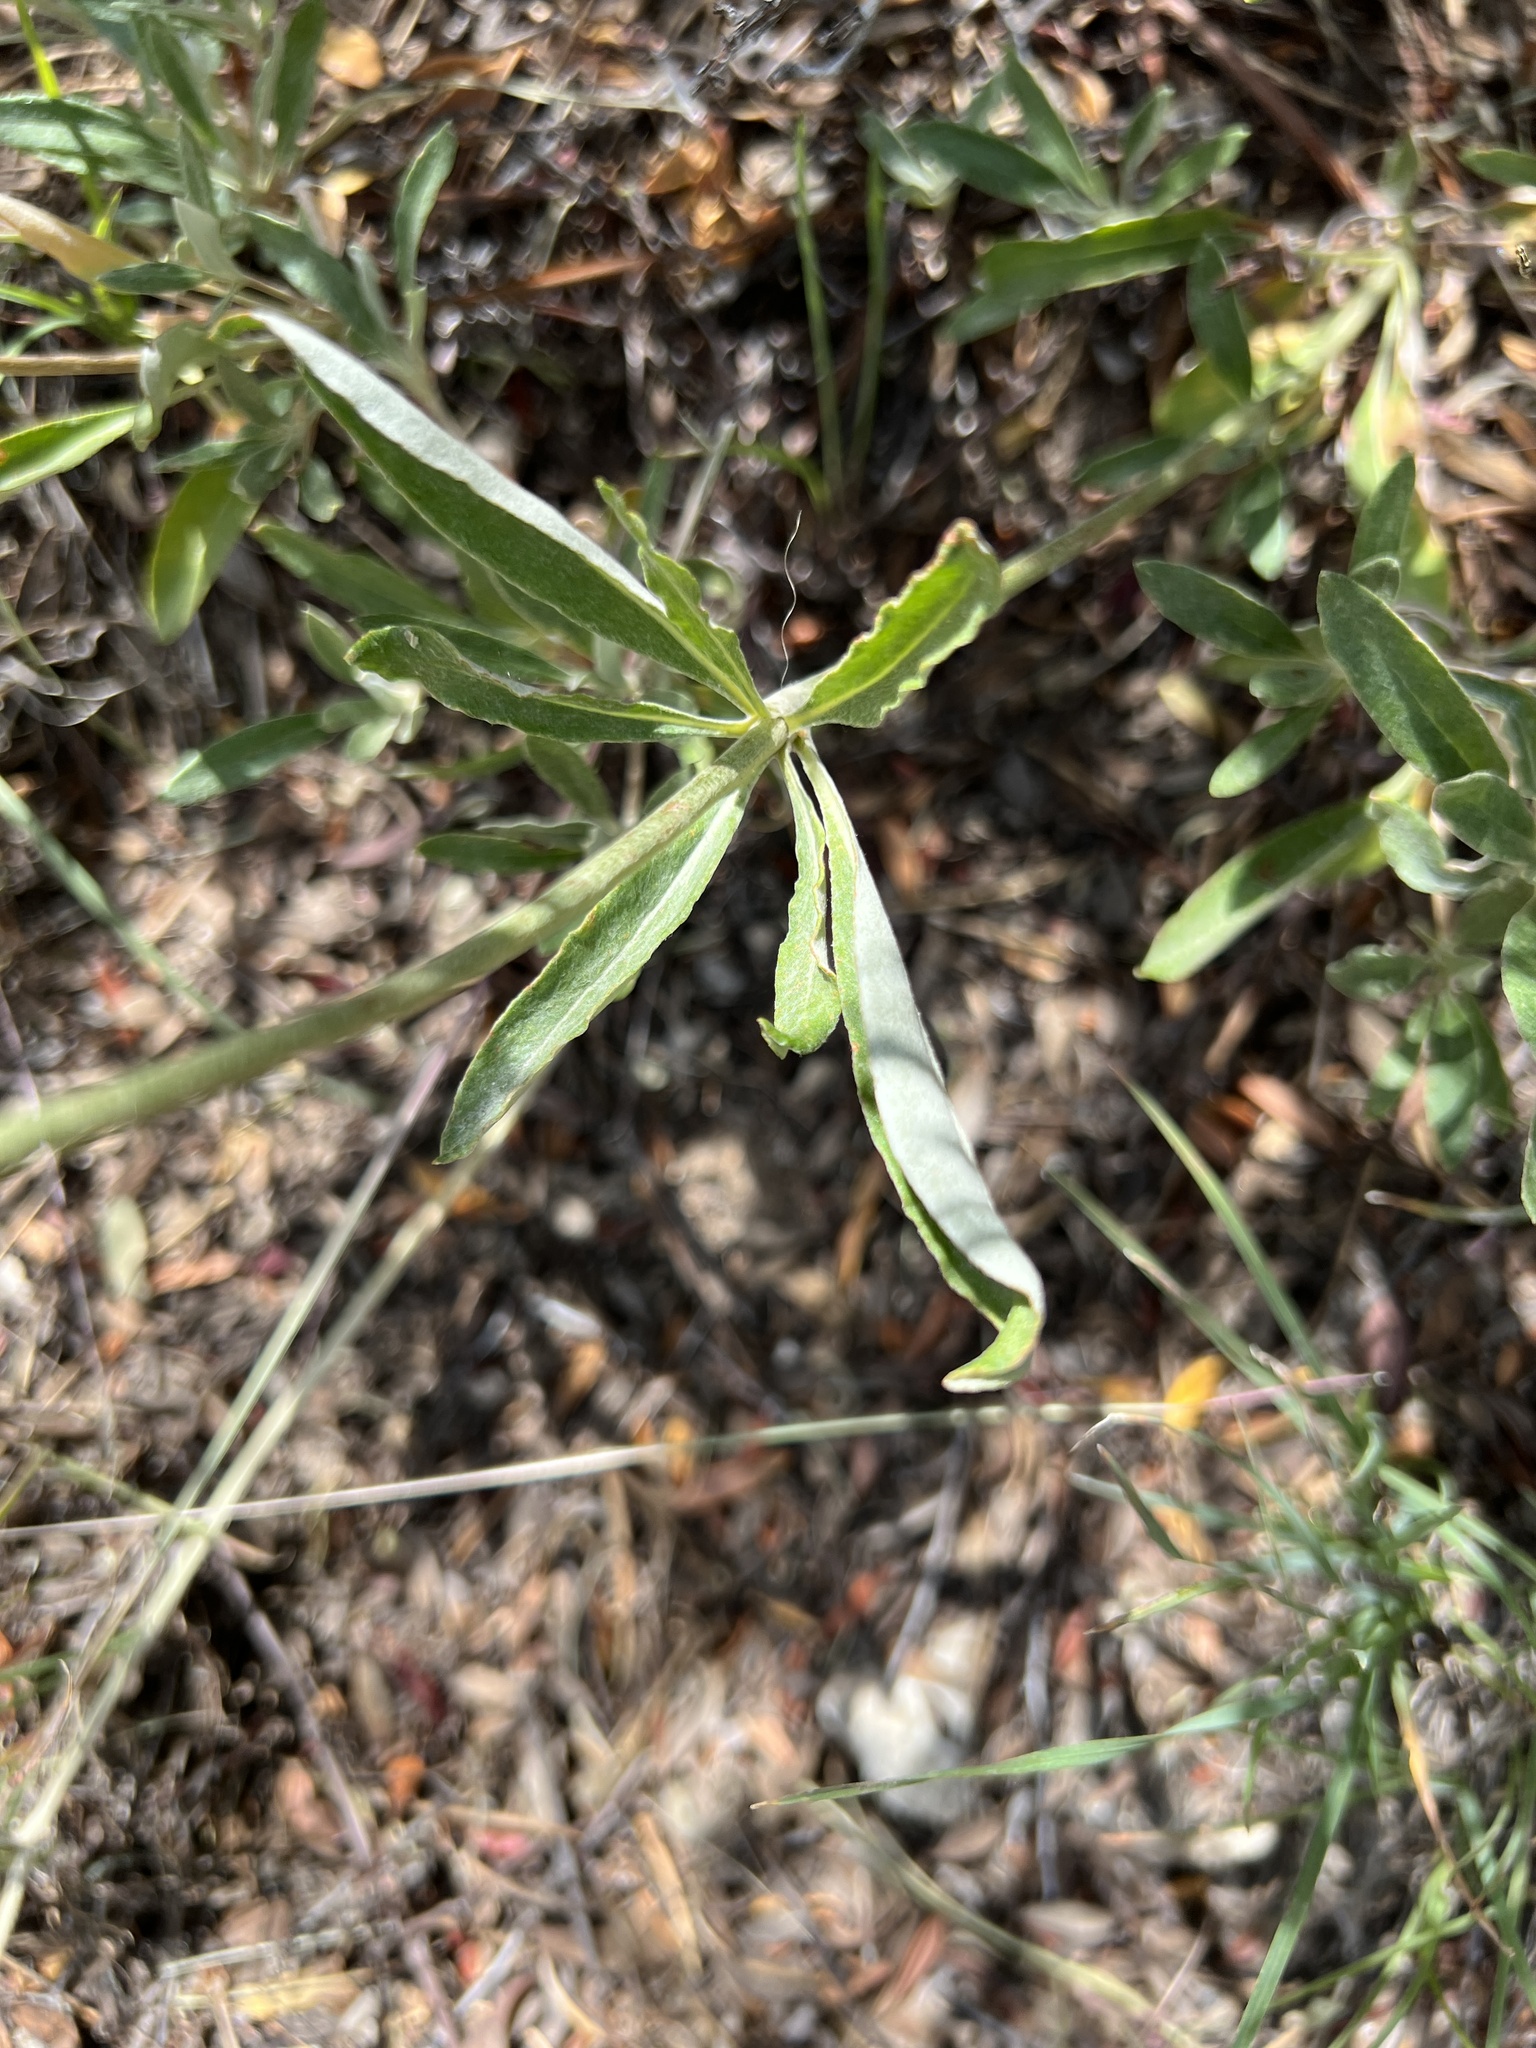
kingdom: Plantae
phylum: Tracheophyta
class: Magnoliopsida
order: Caryophyllales
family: Polygonaceae
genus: Eriogonum
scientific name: Eriogonum heracleoides
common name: Wyeth's buckwheat
